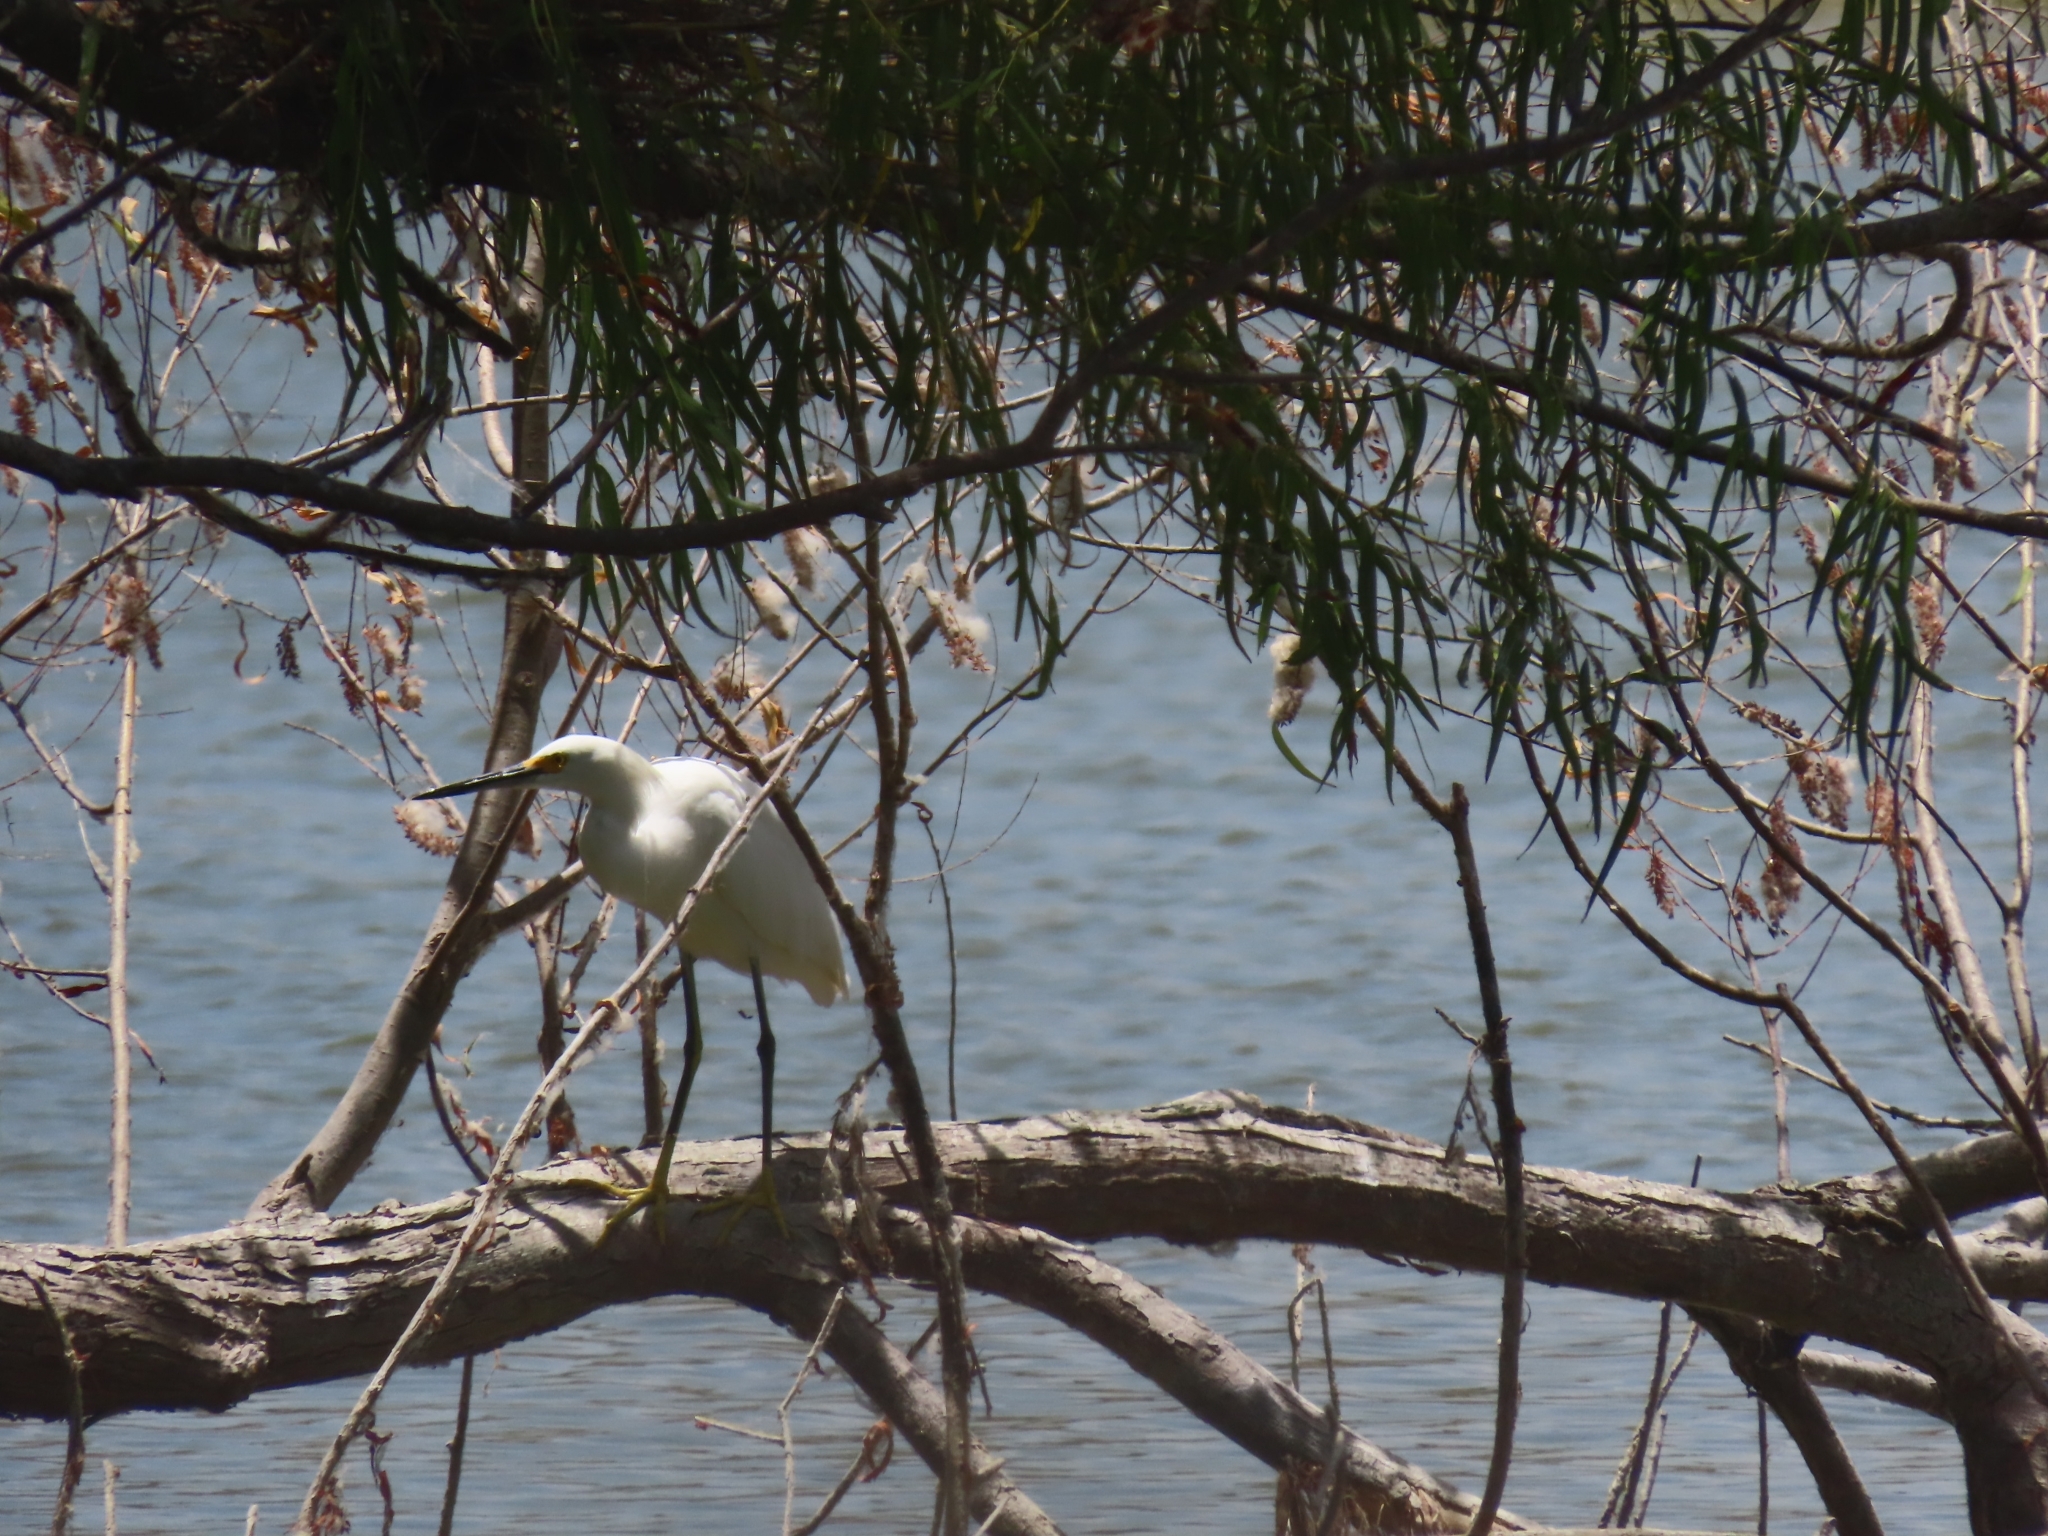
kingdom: Animalia
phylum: Chordata
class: Aves
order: Pelecaniformes
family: Ardeidae
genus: Egretta
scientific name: Egretta thula
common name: Snowy egret
